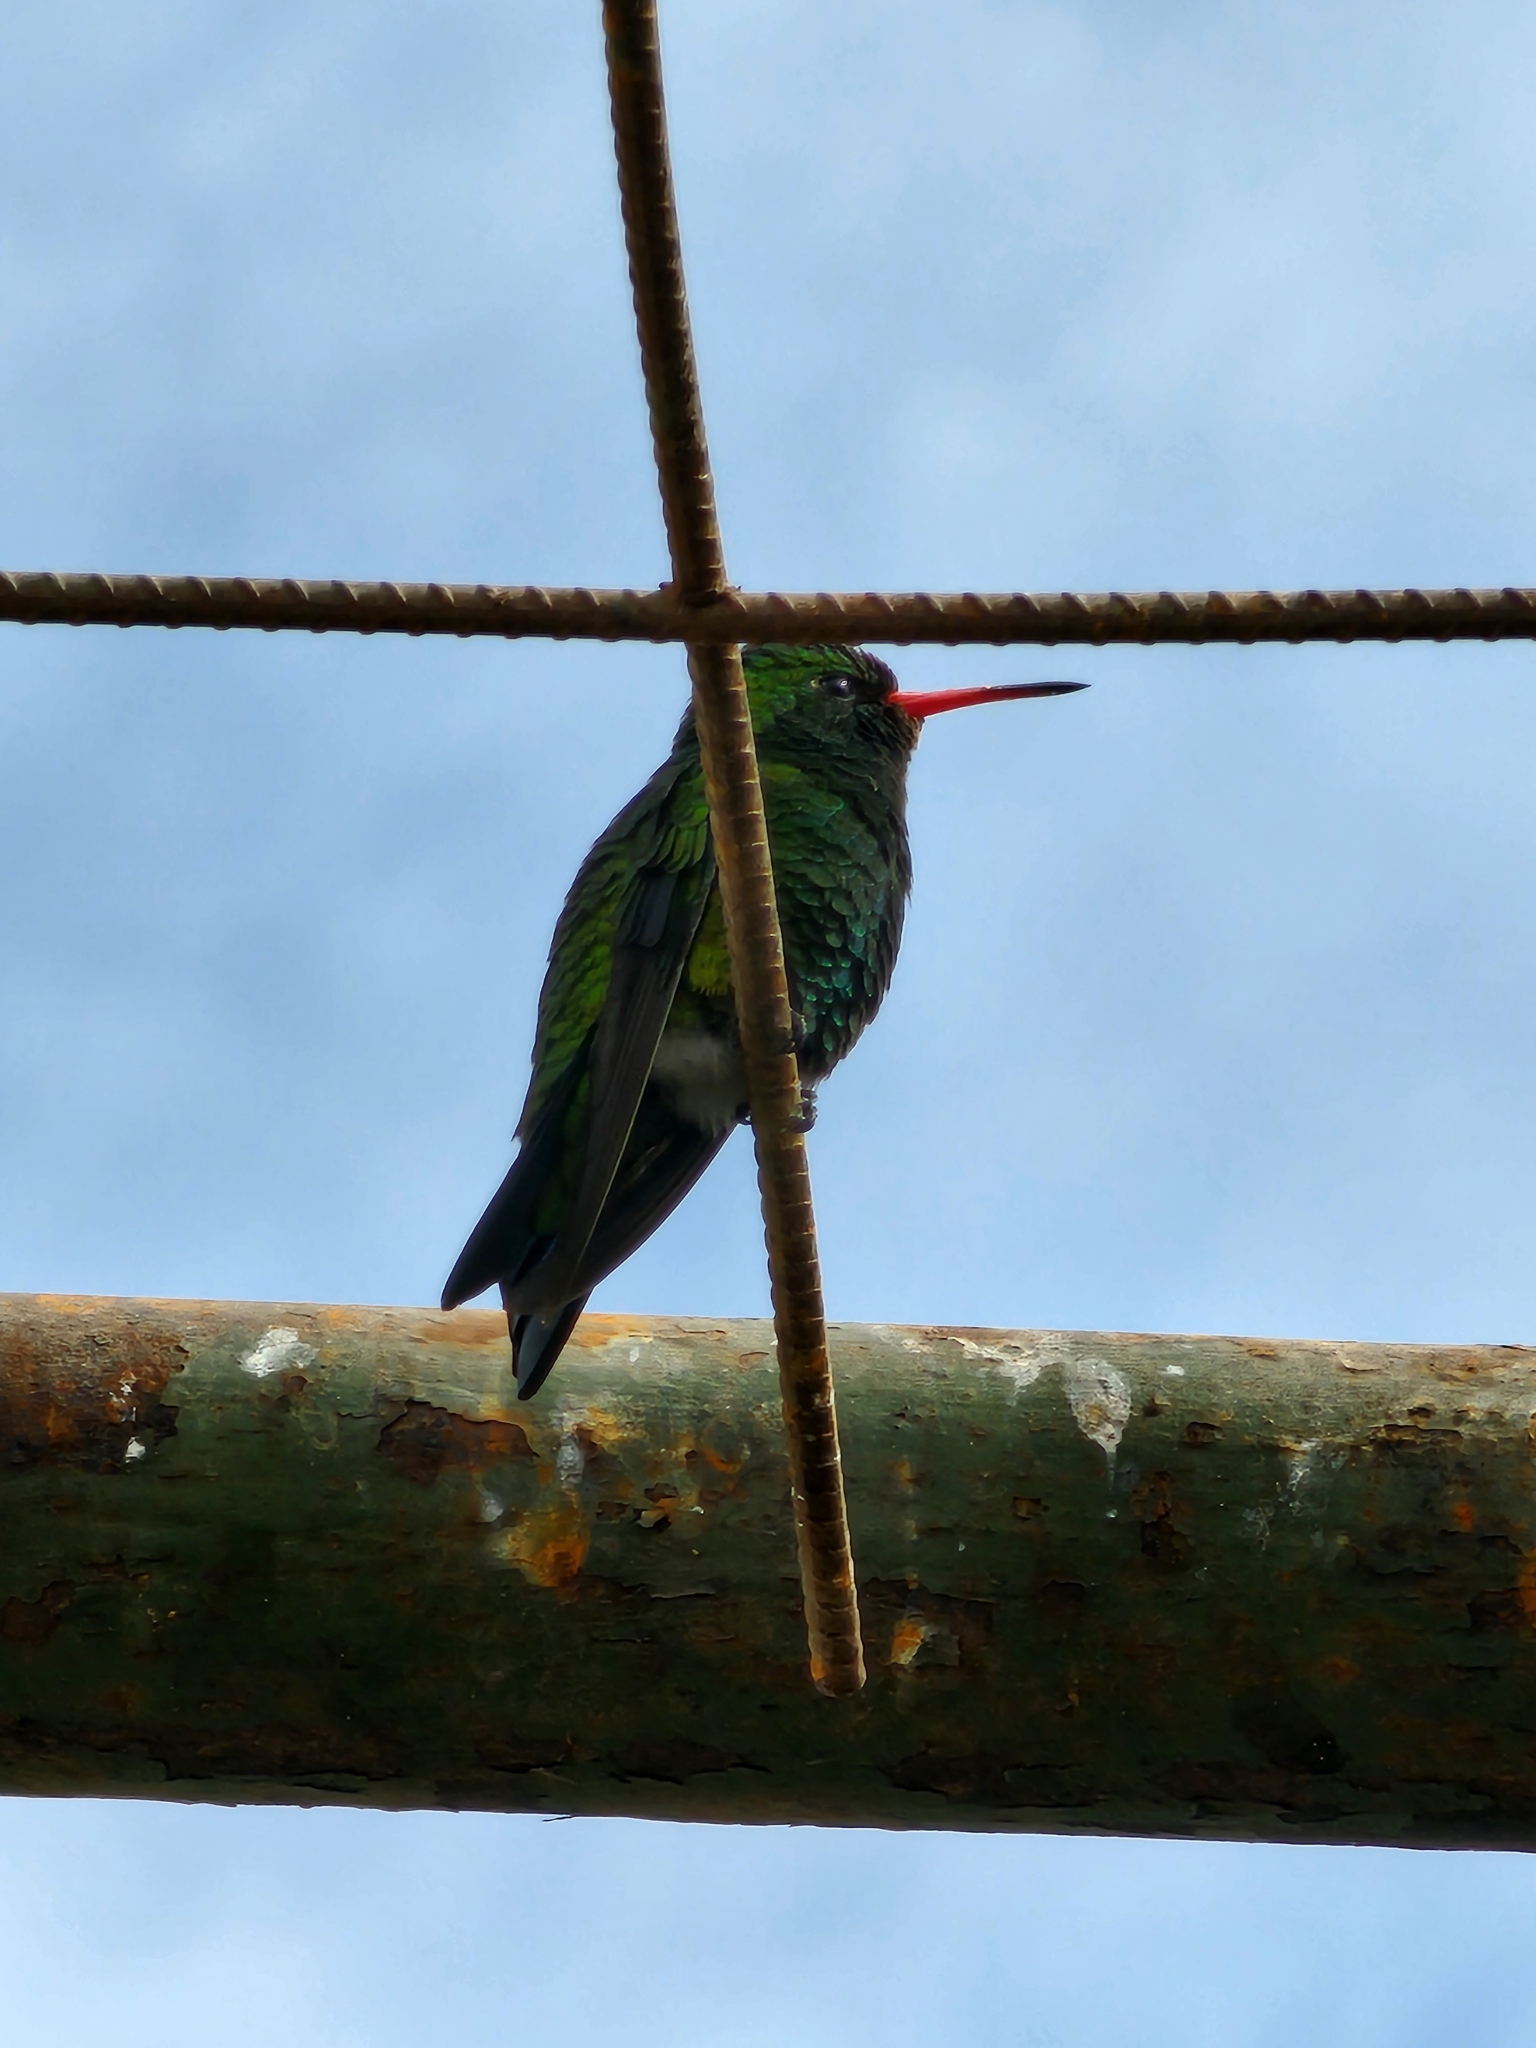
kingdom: Animalia
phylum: Chordata
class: Aves
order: Apodiformes
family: Trochilidae
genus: Chlorostilbon
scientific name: Chlorostilbon lucidus
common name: Glittering-bellied emerald
